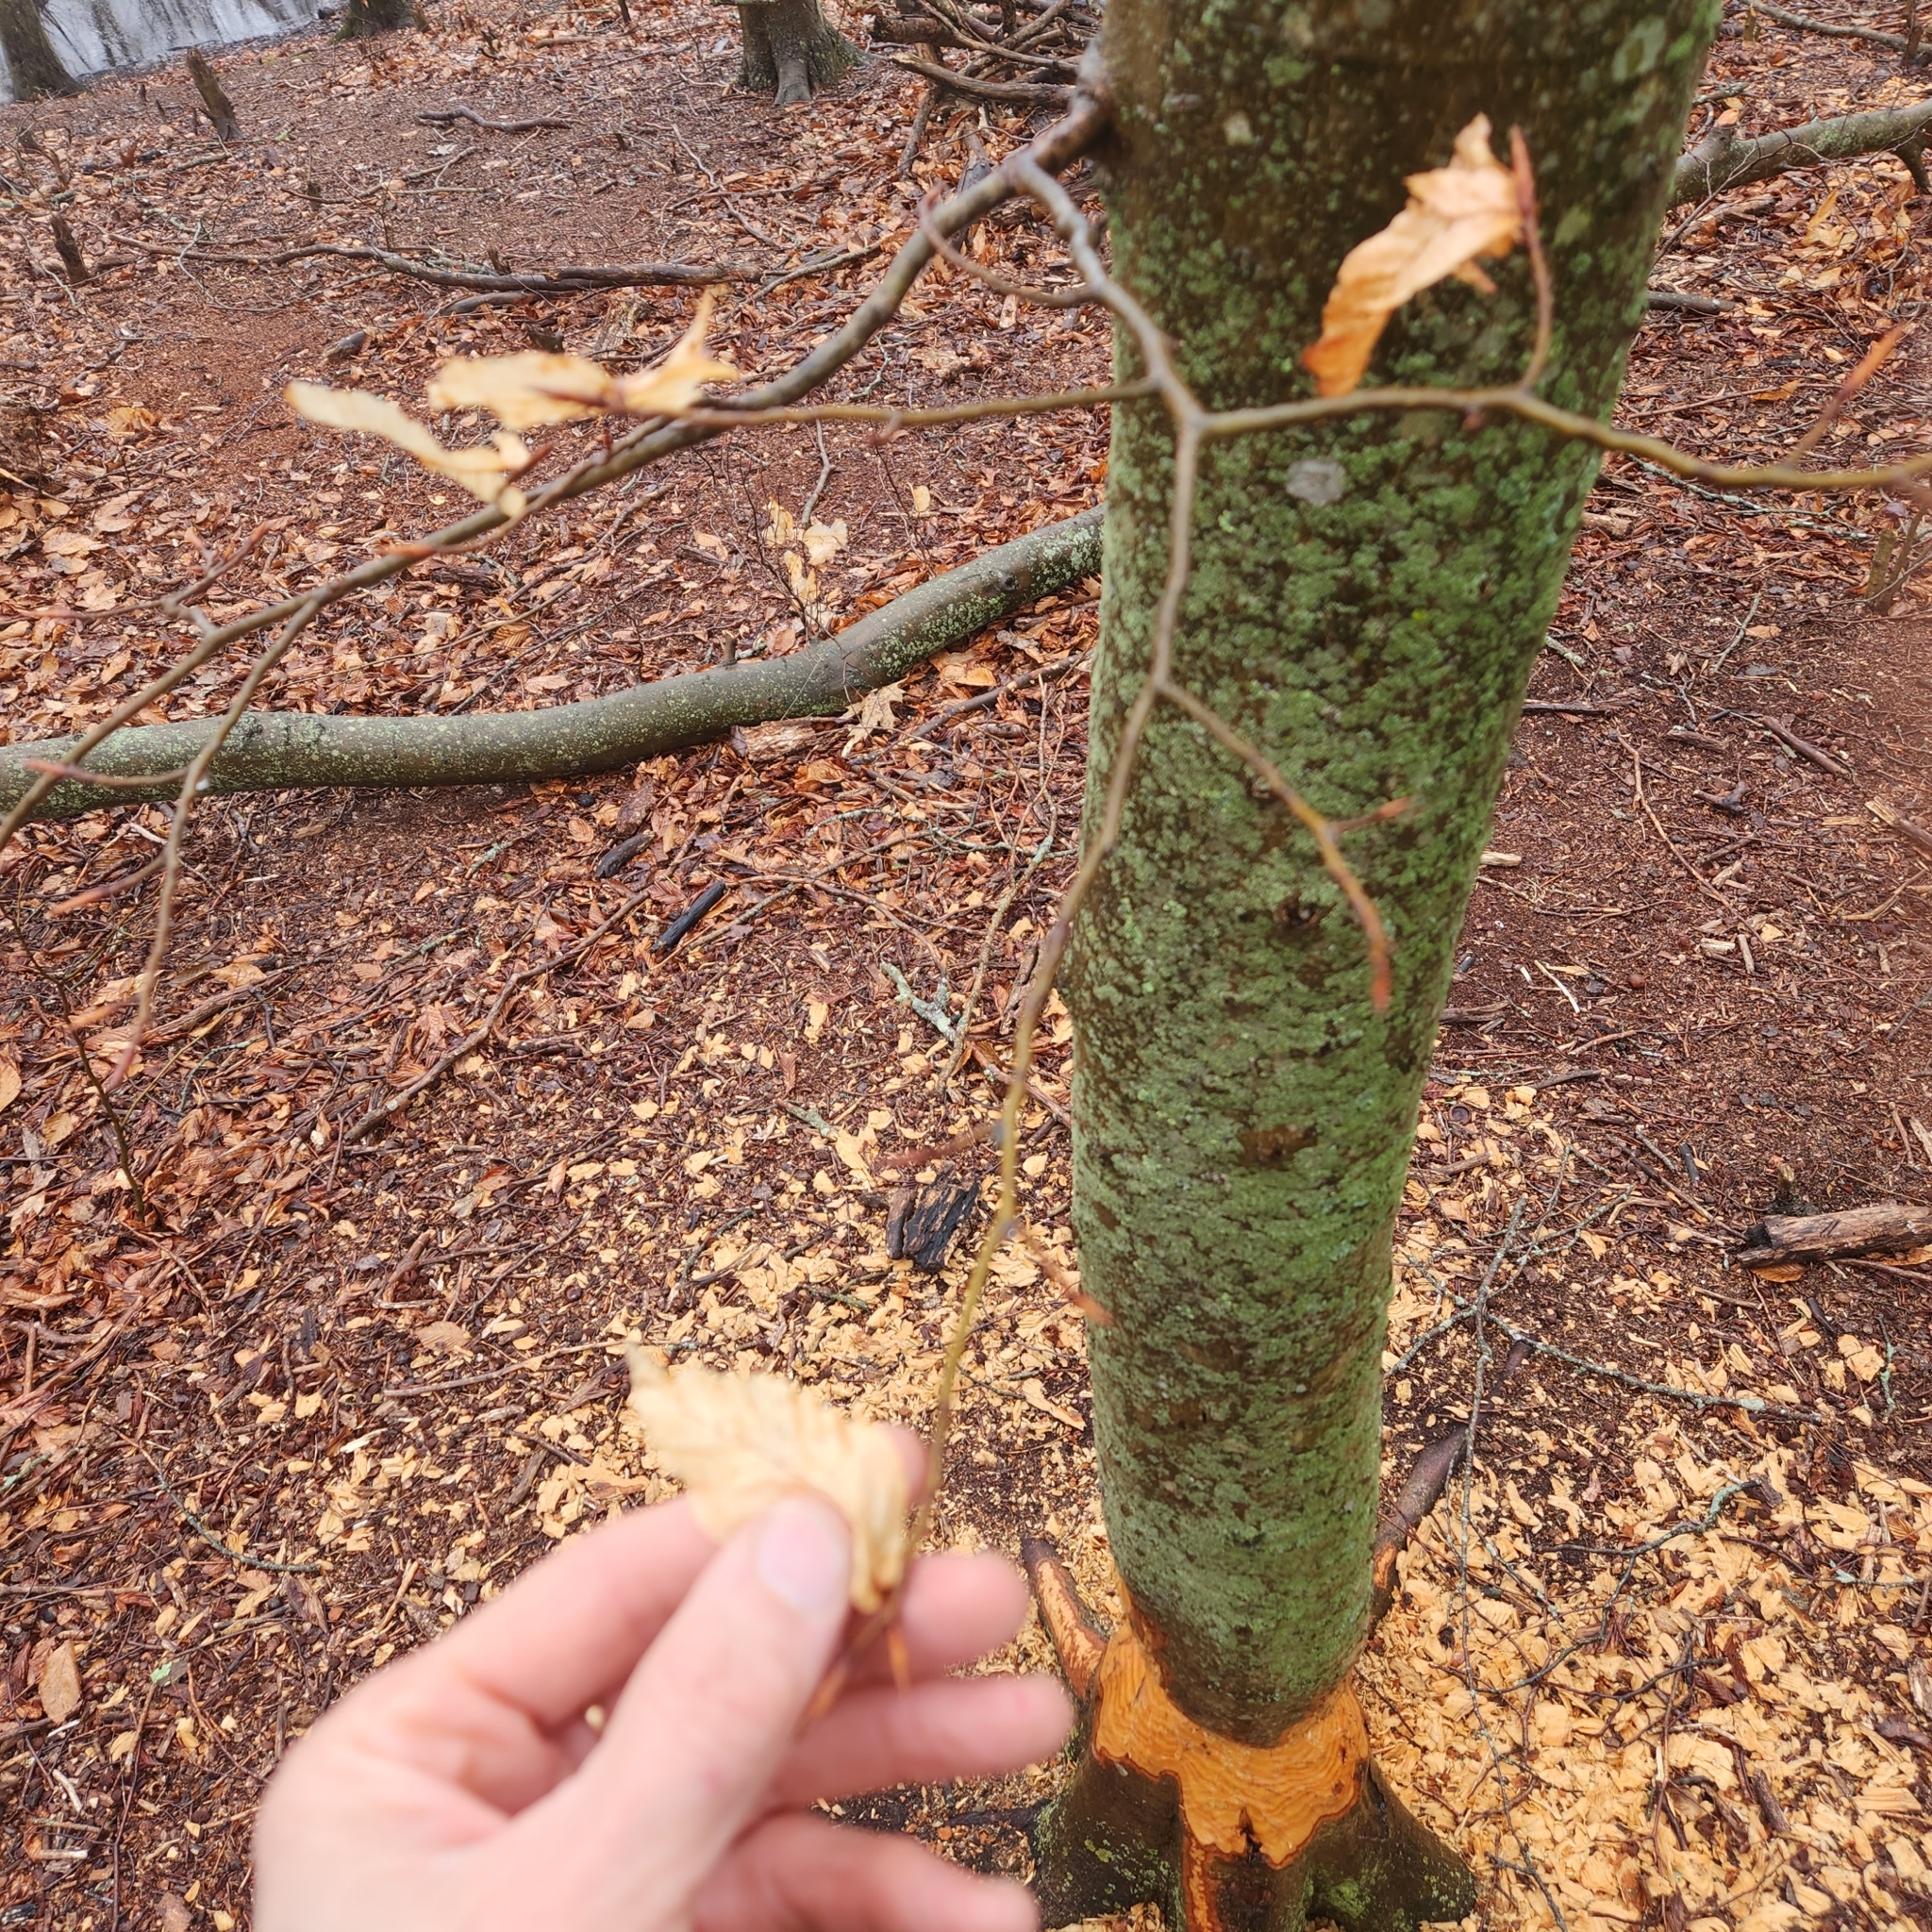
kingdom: Animalia
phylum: Chordata
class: Mammalia
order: Rodentia
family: Castoridae
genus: Castor
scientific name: Castor canadensis
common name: American beaver
